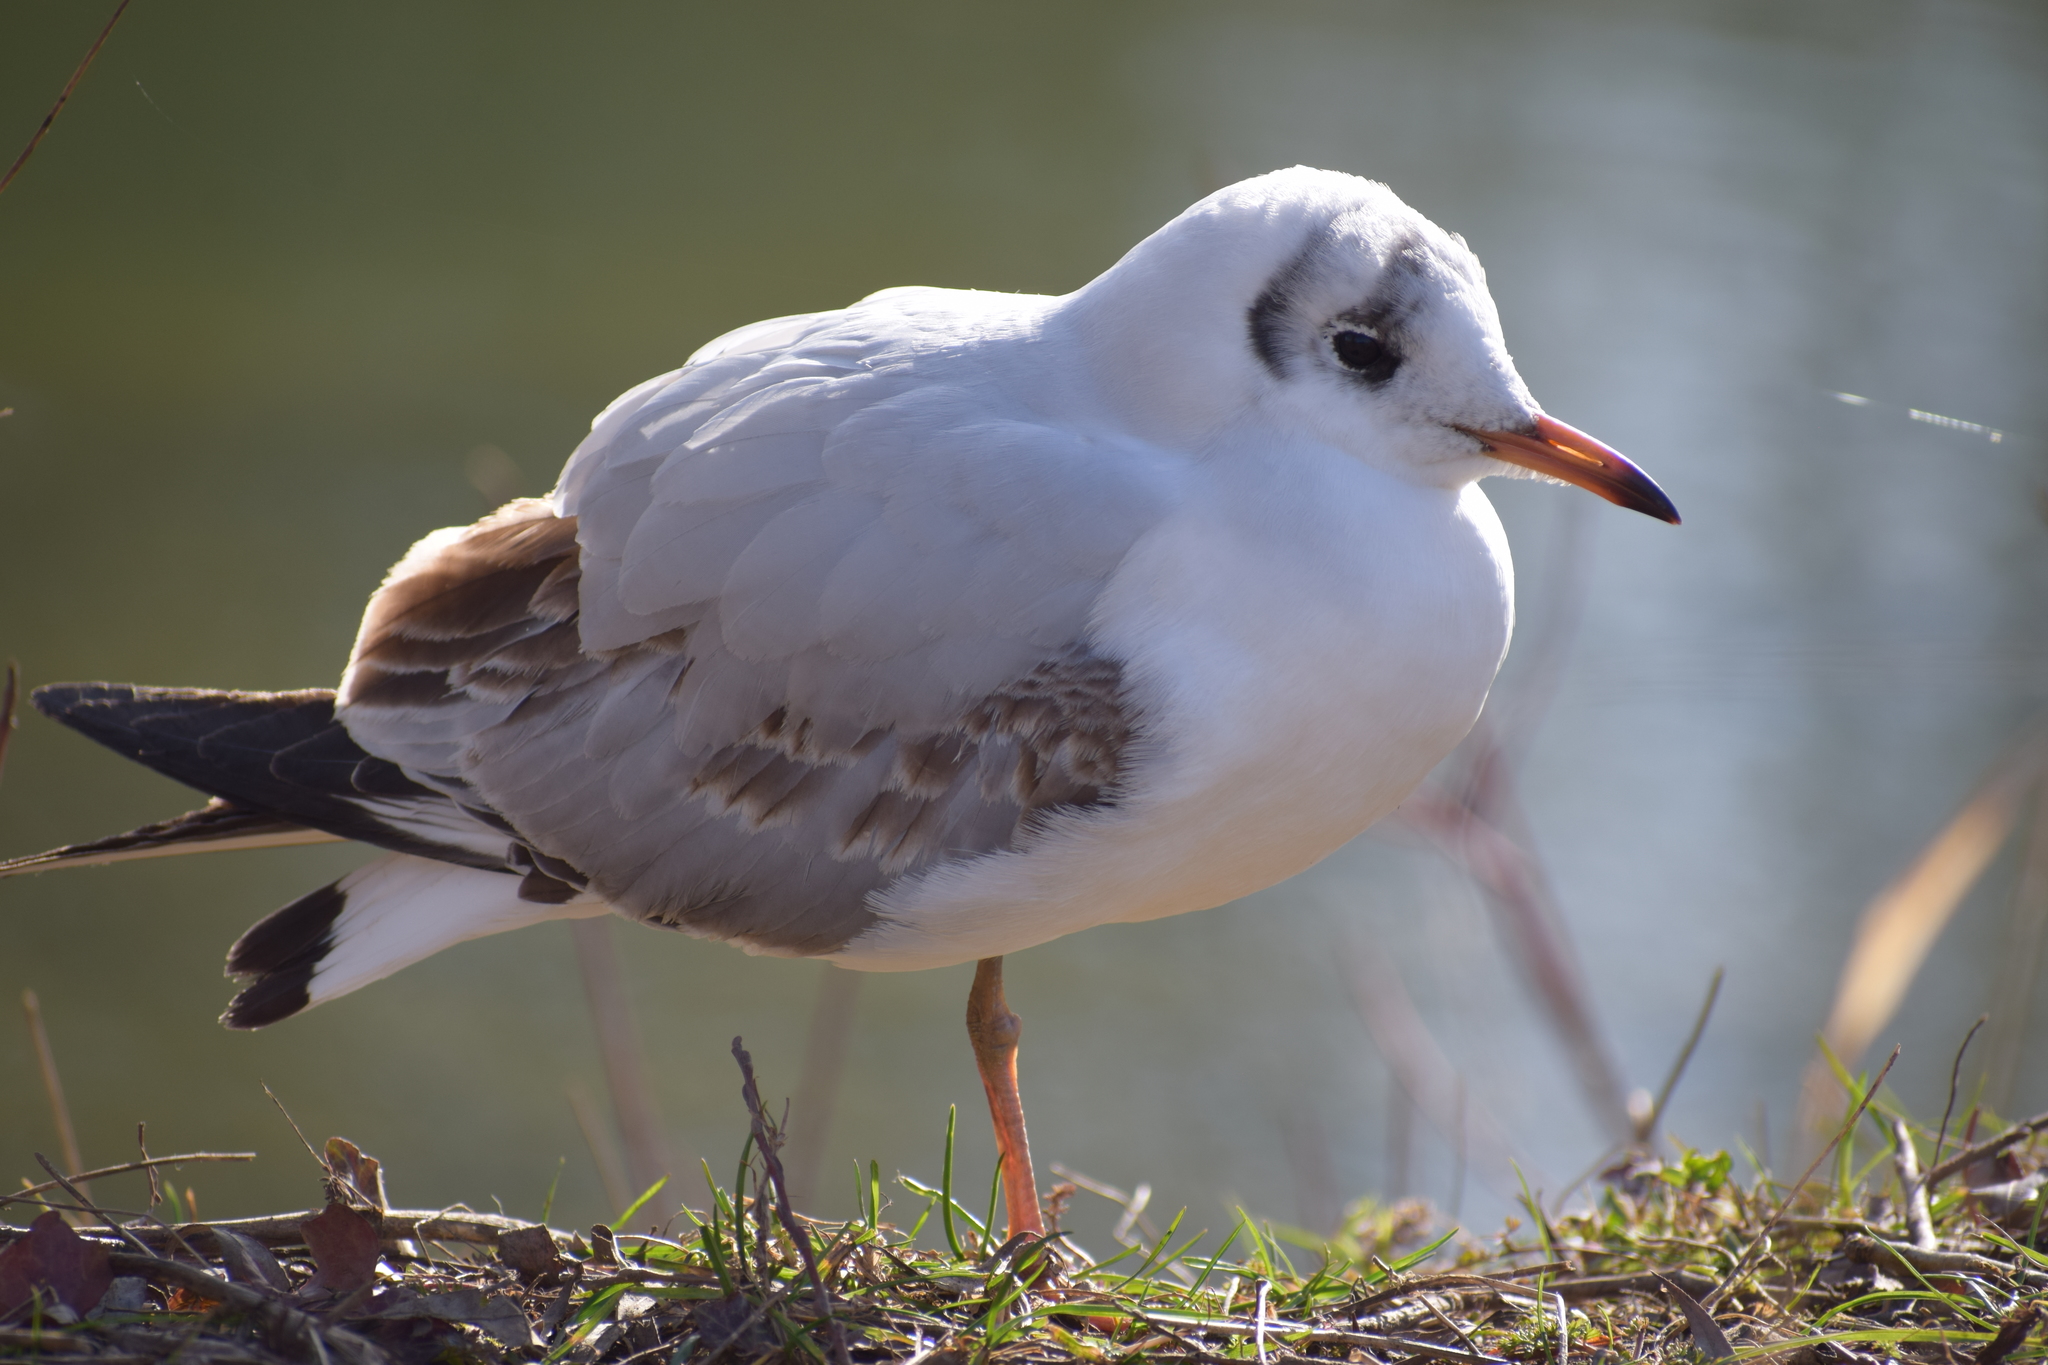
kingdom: Animalia
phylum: Chordata
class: Aves
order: Charadriiformes
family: Laridae
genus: Chroicocephalus
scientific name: Chroicocephalus ridibundus
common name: Black-headed gull
